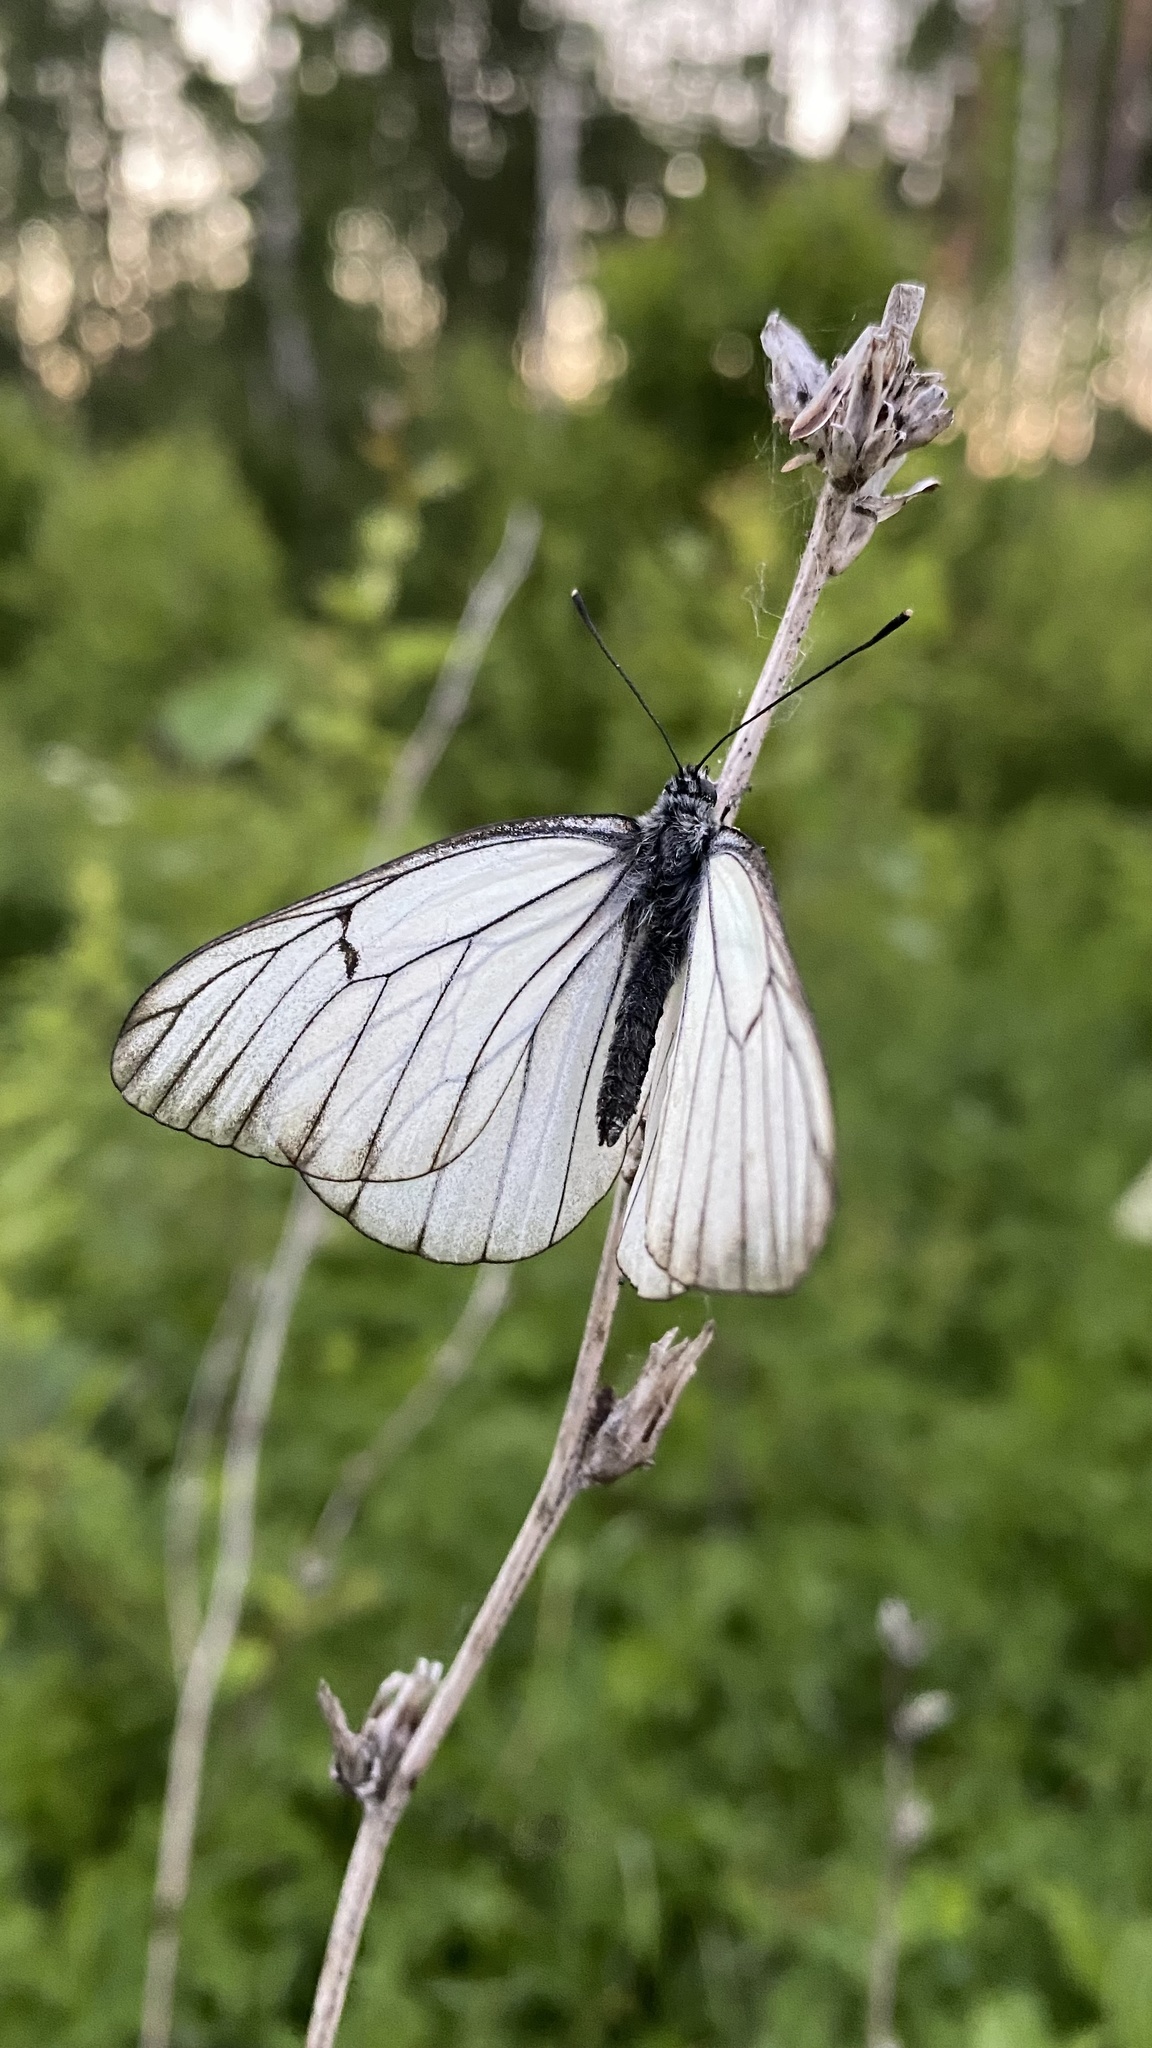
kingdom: Animalia
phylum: Arthropoda
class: Insecta
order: Lepidoptera
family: Pieridae
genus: Aporia
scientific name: Aporia crataegi
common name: Black-veined white
